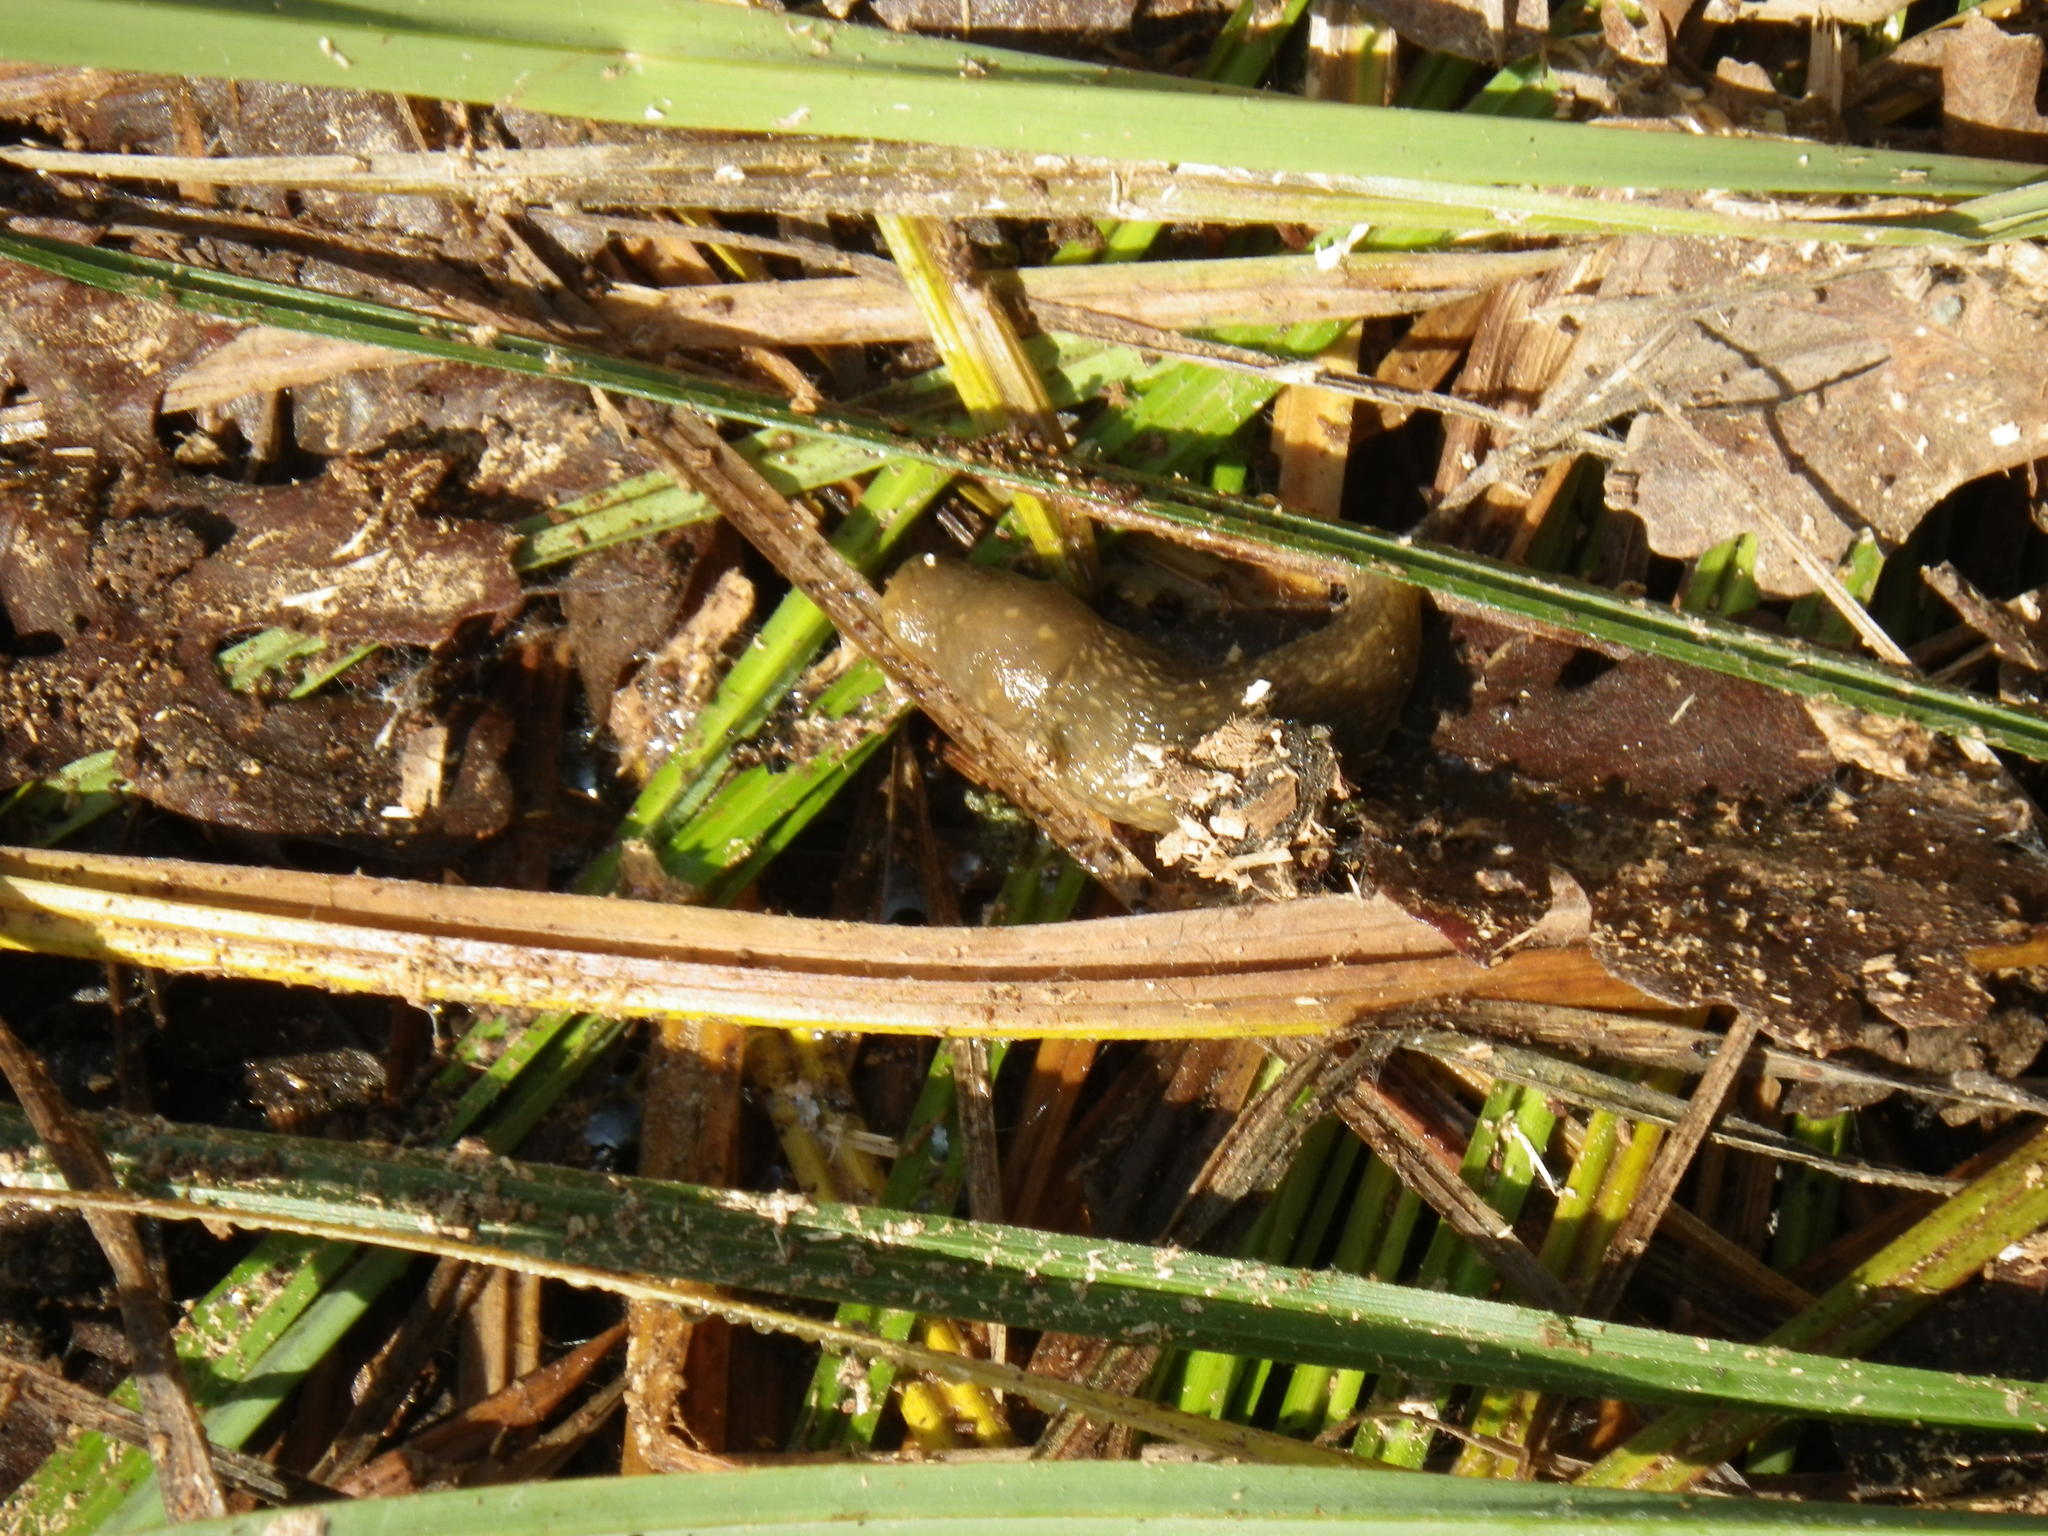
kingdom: Animalia
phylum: Mollusca
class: Gastropoda
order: Stylommatophora
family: Limacidae
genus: Limacus
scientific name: Limacus flavus
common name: Yellow gardenslug
